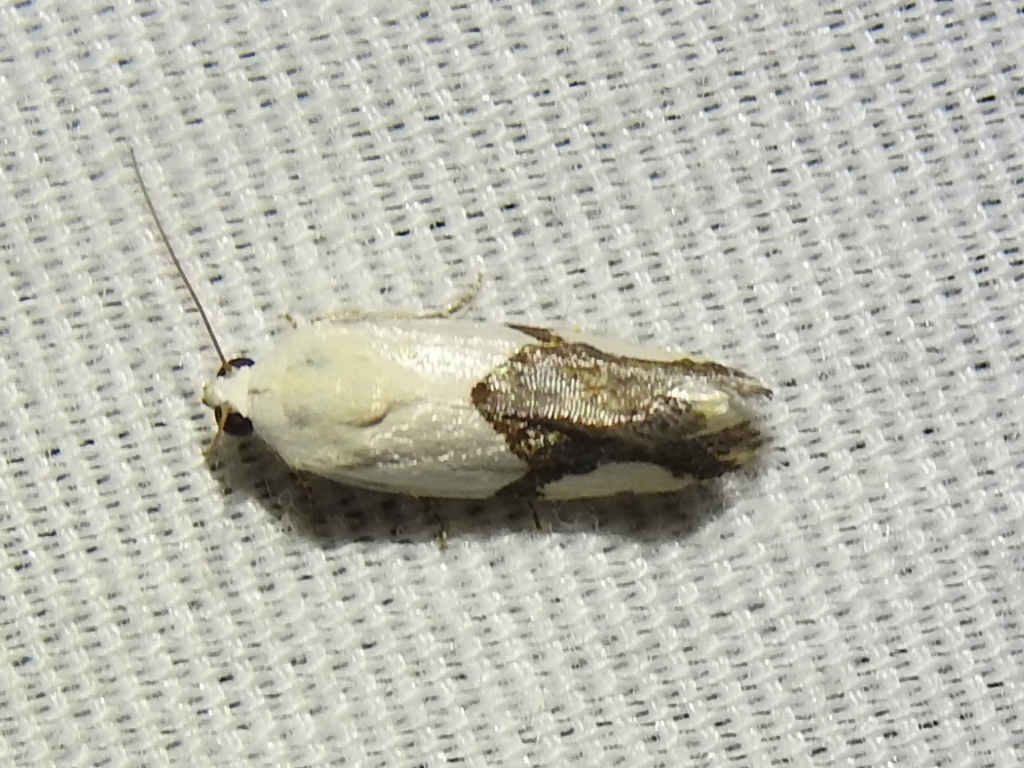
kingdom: Animalia
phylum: Arthropoda
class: Insecta
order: Lepidoptera
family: Noctuidae
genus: Acontia
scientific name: Acontia cuta
